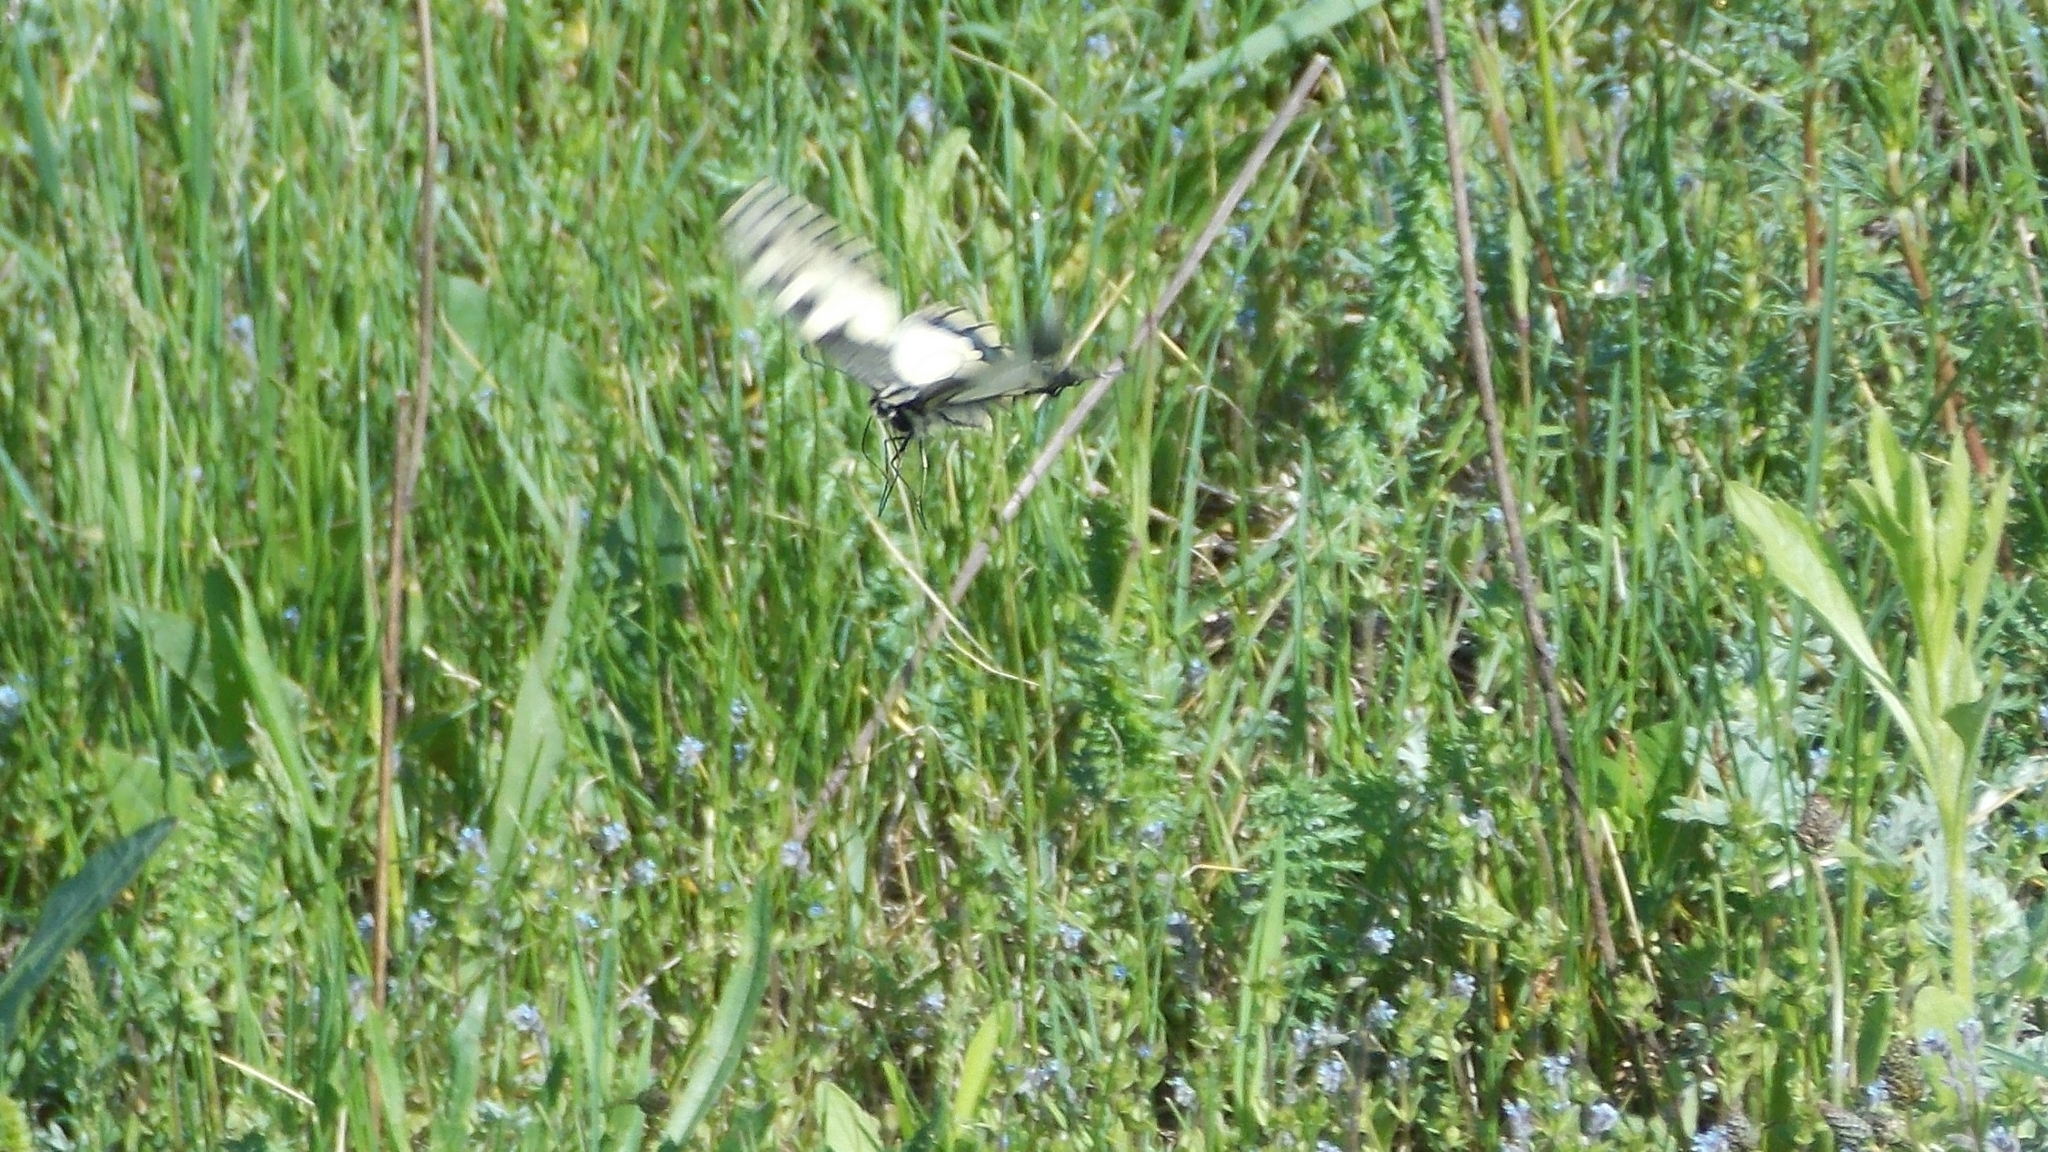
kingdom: Animalia
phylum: Arthropoda
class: Insecta
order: Lepidoptera
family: Papilionidae
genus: Papilio
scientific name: Papilio machaon
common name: Swallowtail
